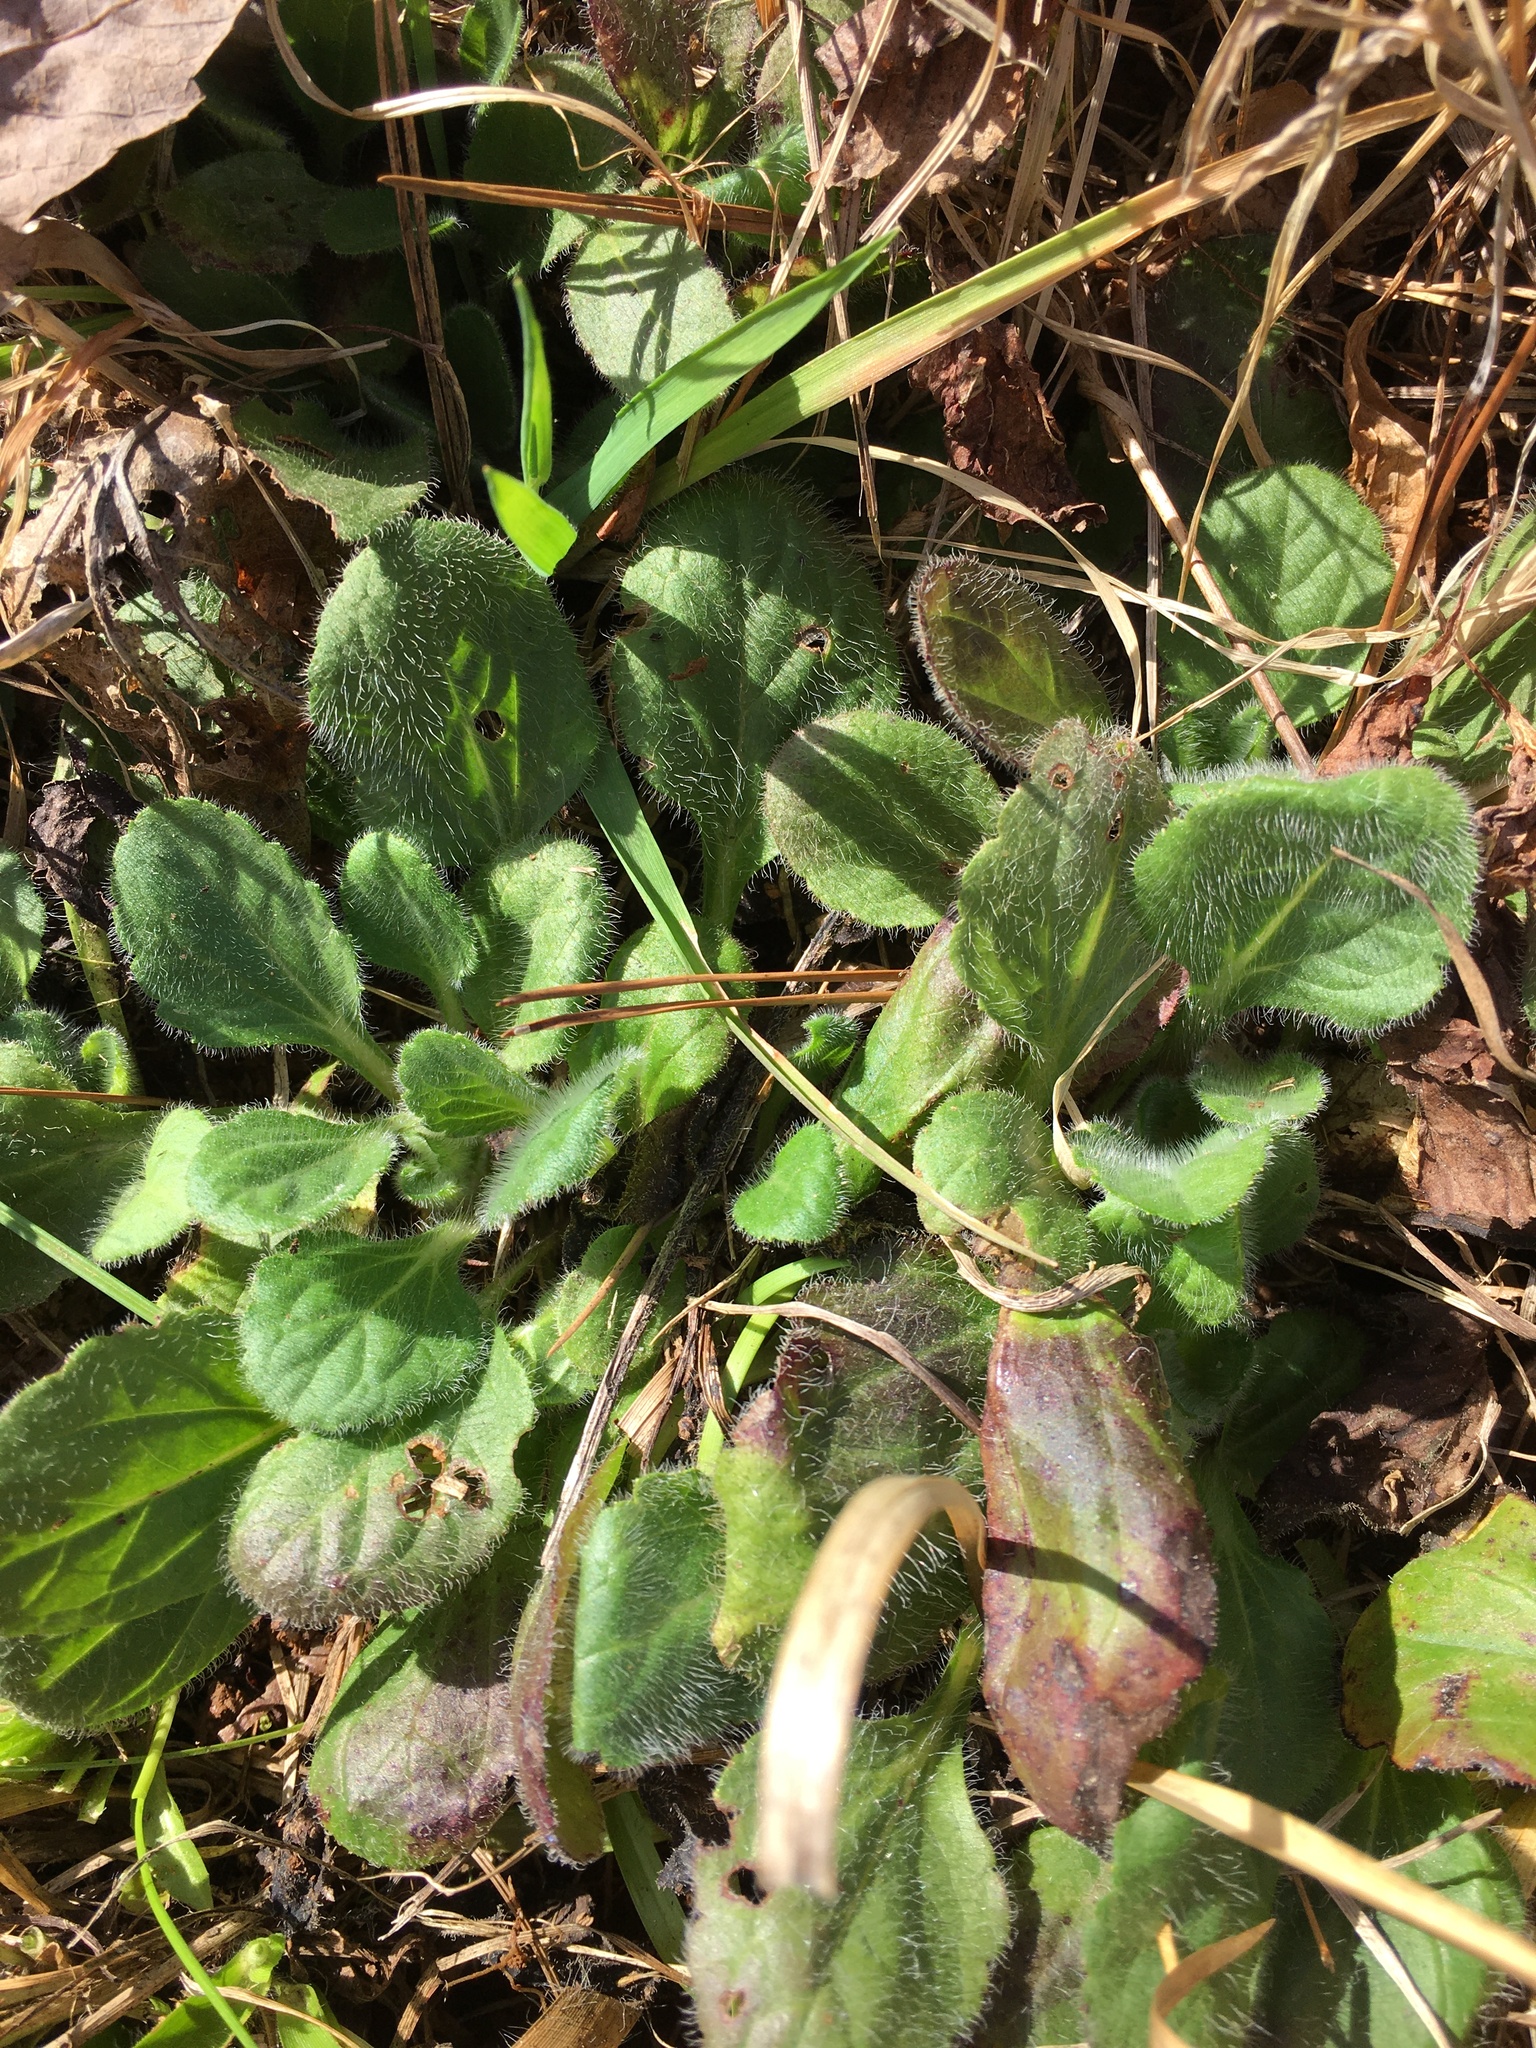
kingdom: Plantae
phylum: Tracheophyta
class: Magnoliopsida
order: Asterales
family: Asteraceae
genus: Chrysogonum
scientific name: Chrysogonum virginianum
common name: Golden-knee
